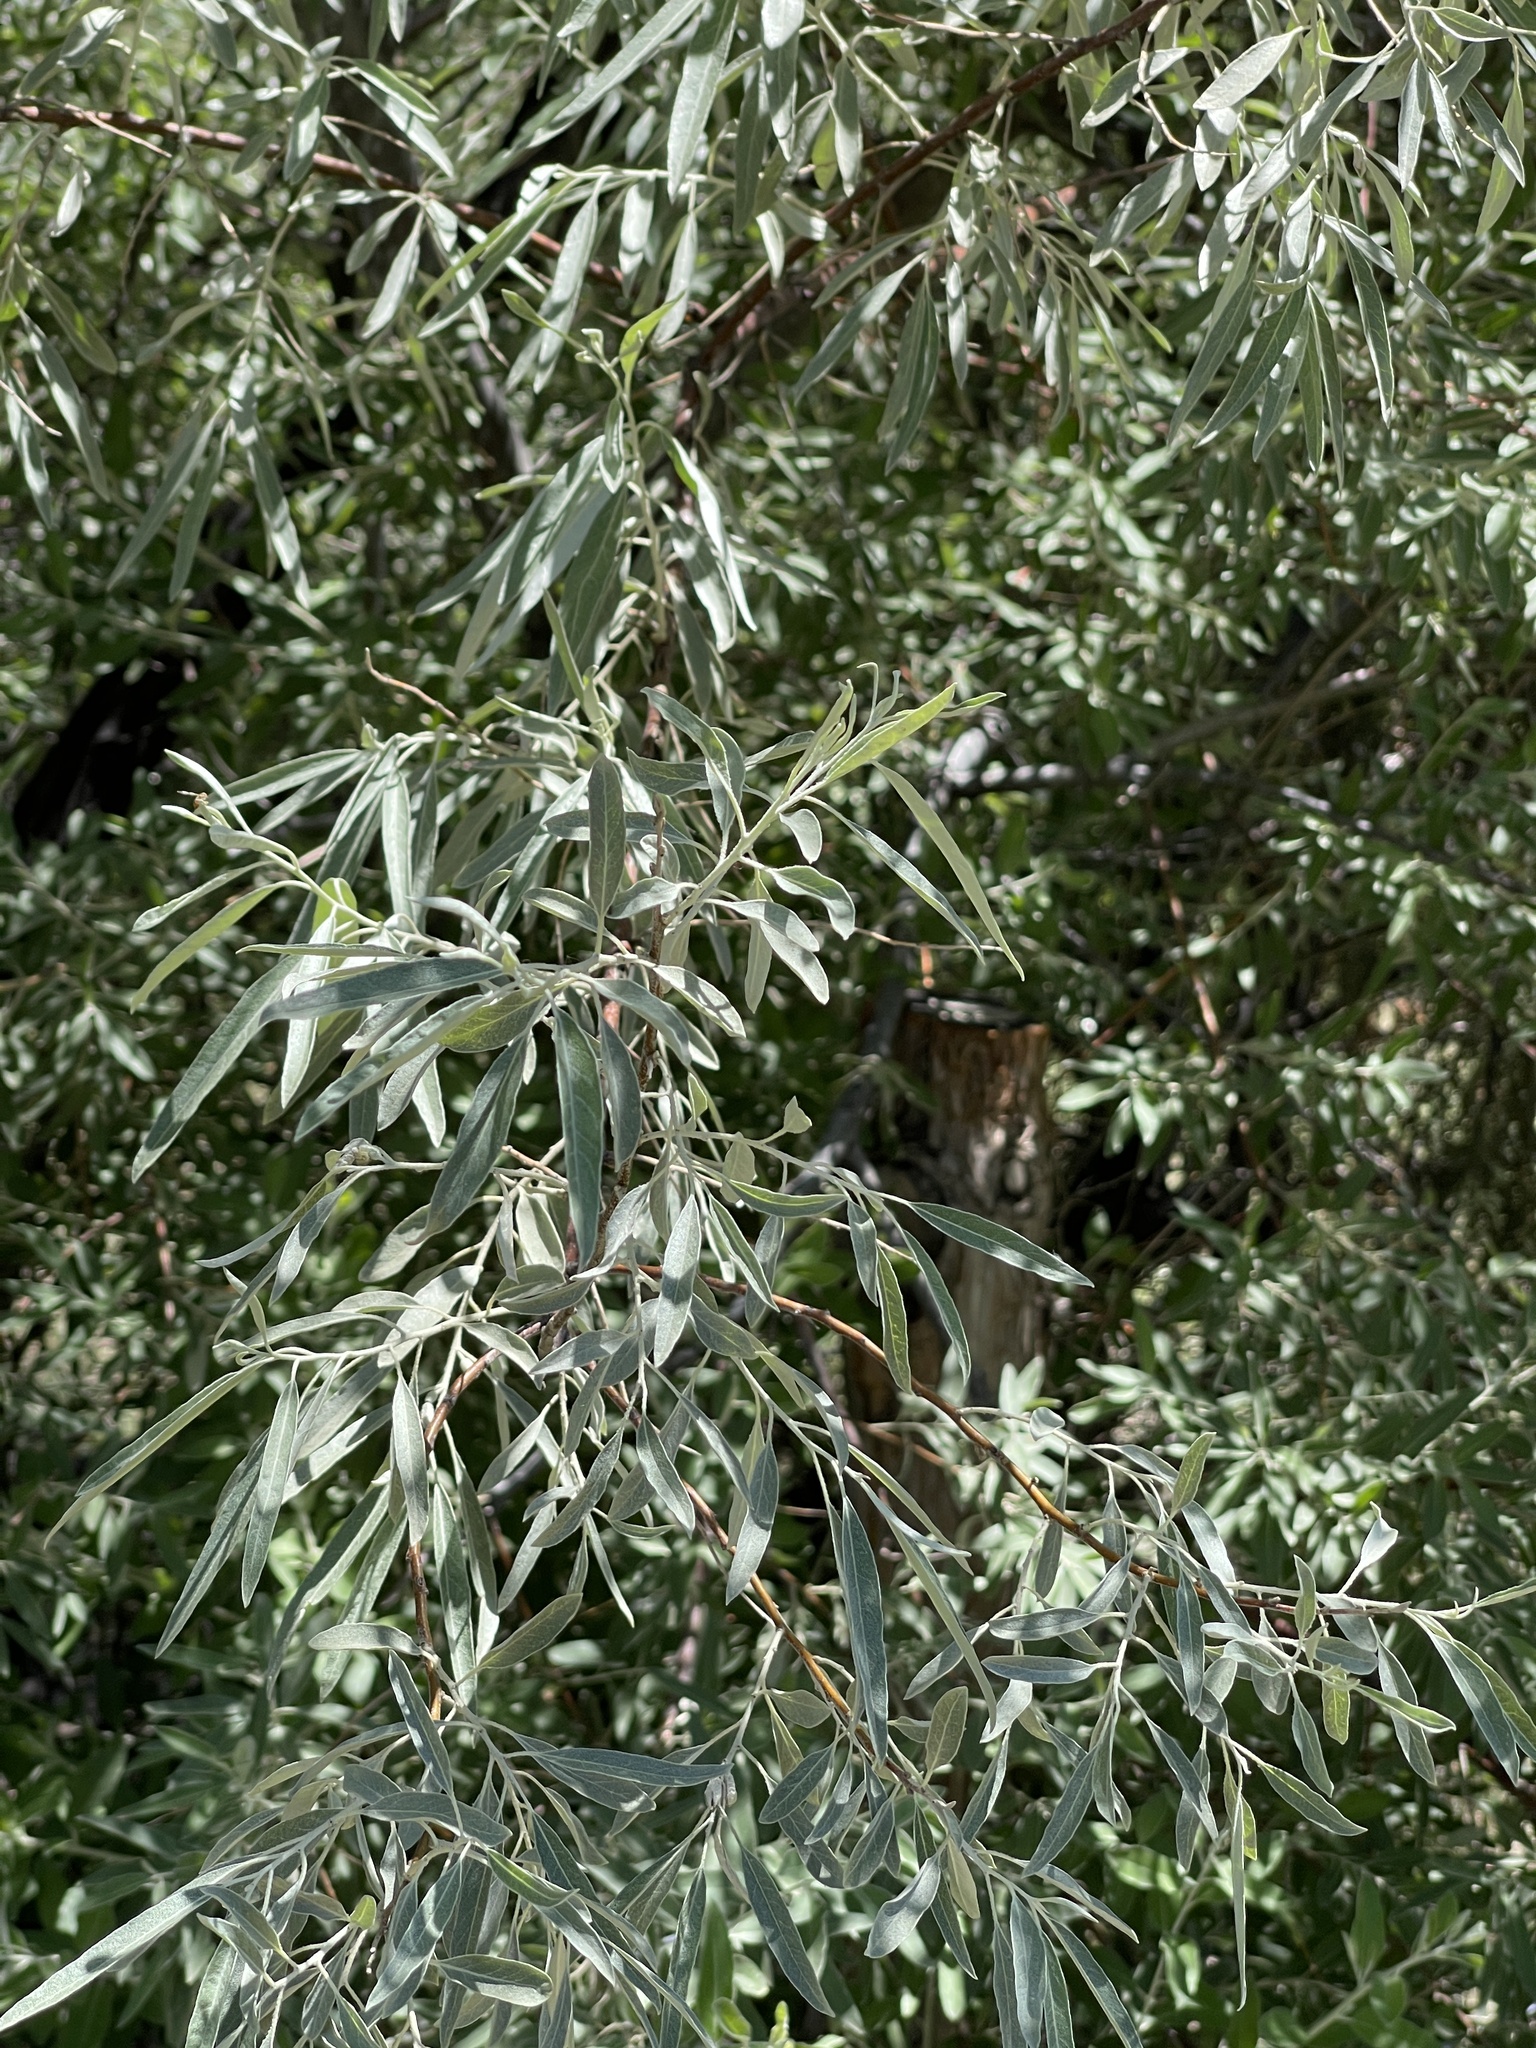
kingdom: Plantae
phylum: Tracheophyta
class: Magnoliopsida
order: Rosales
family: Elaeagnaceae
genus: Elaeagnus
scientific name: Elaeagnus angustifolia
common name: Russian olive
